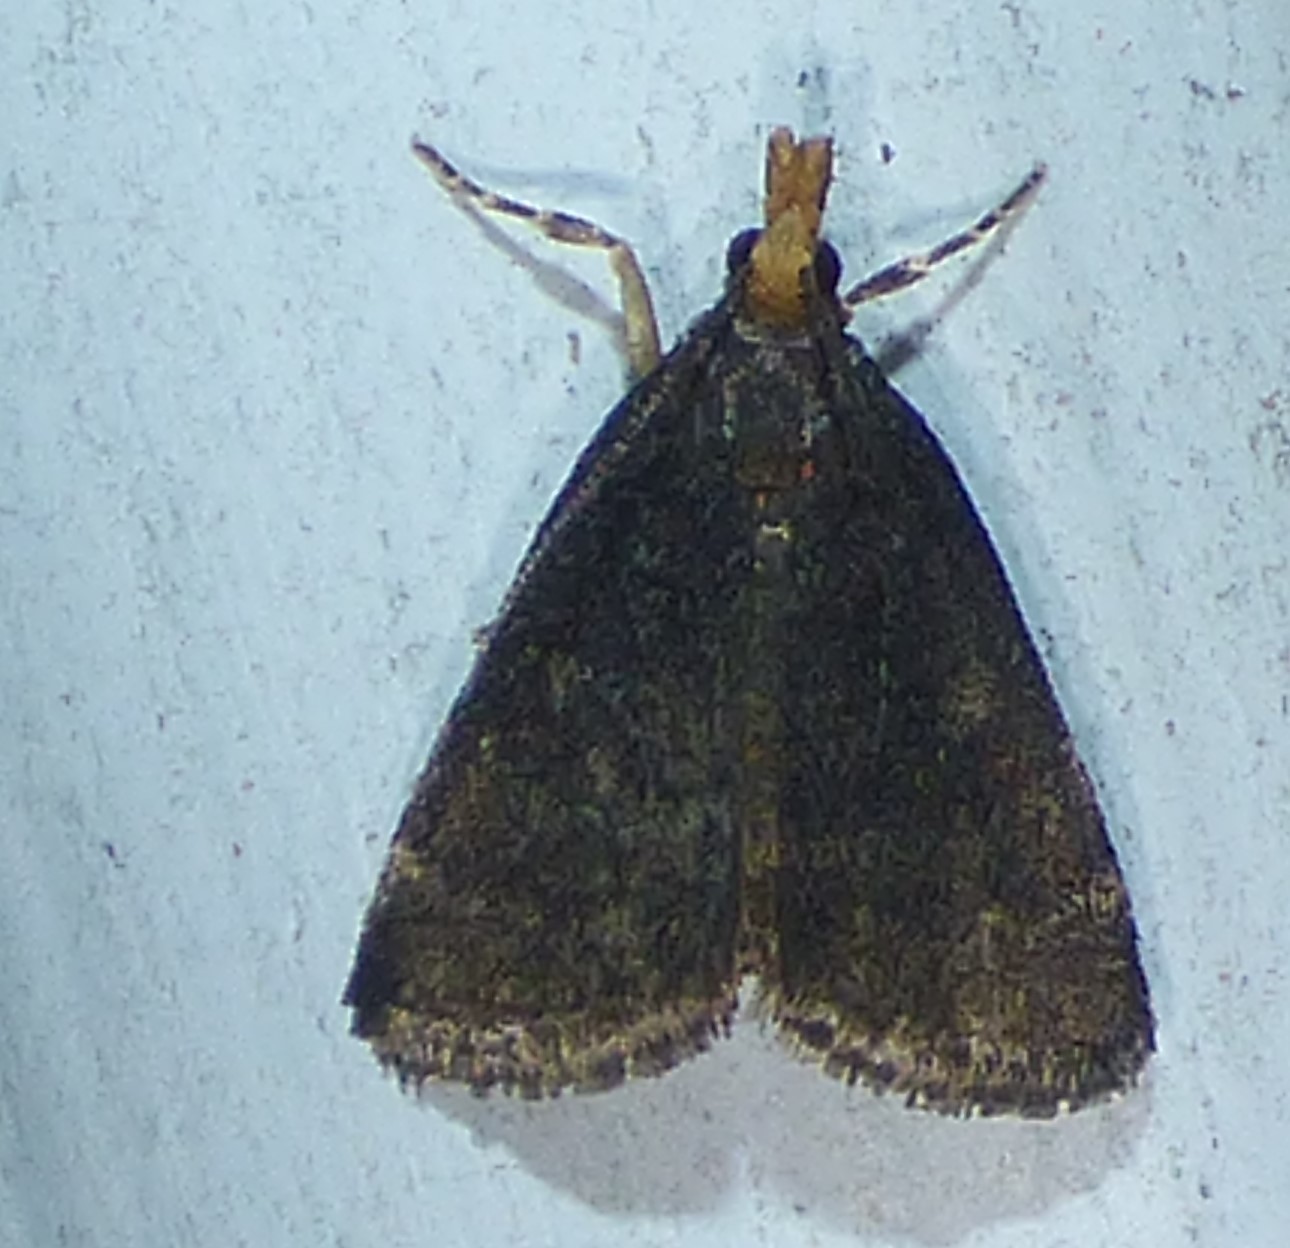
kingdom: Animalia
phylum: Arthropoda
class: Insecta
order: Lepidoptera
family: Crambidae
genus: Pyrausta
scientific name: Pyrausta merrickalis
